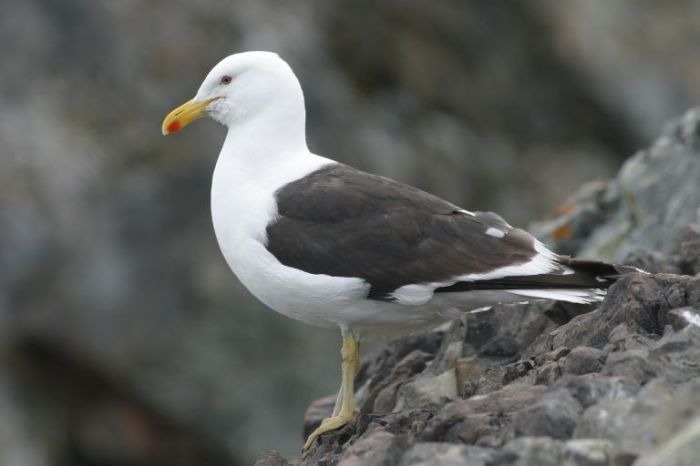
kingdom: Animalia
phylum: Chordata
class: Aves
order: Charadriiformes
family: Laridae
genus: Larus
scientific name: Larus dominicanus
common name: Kelp gull
